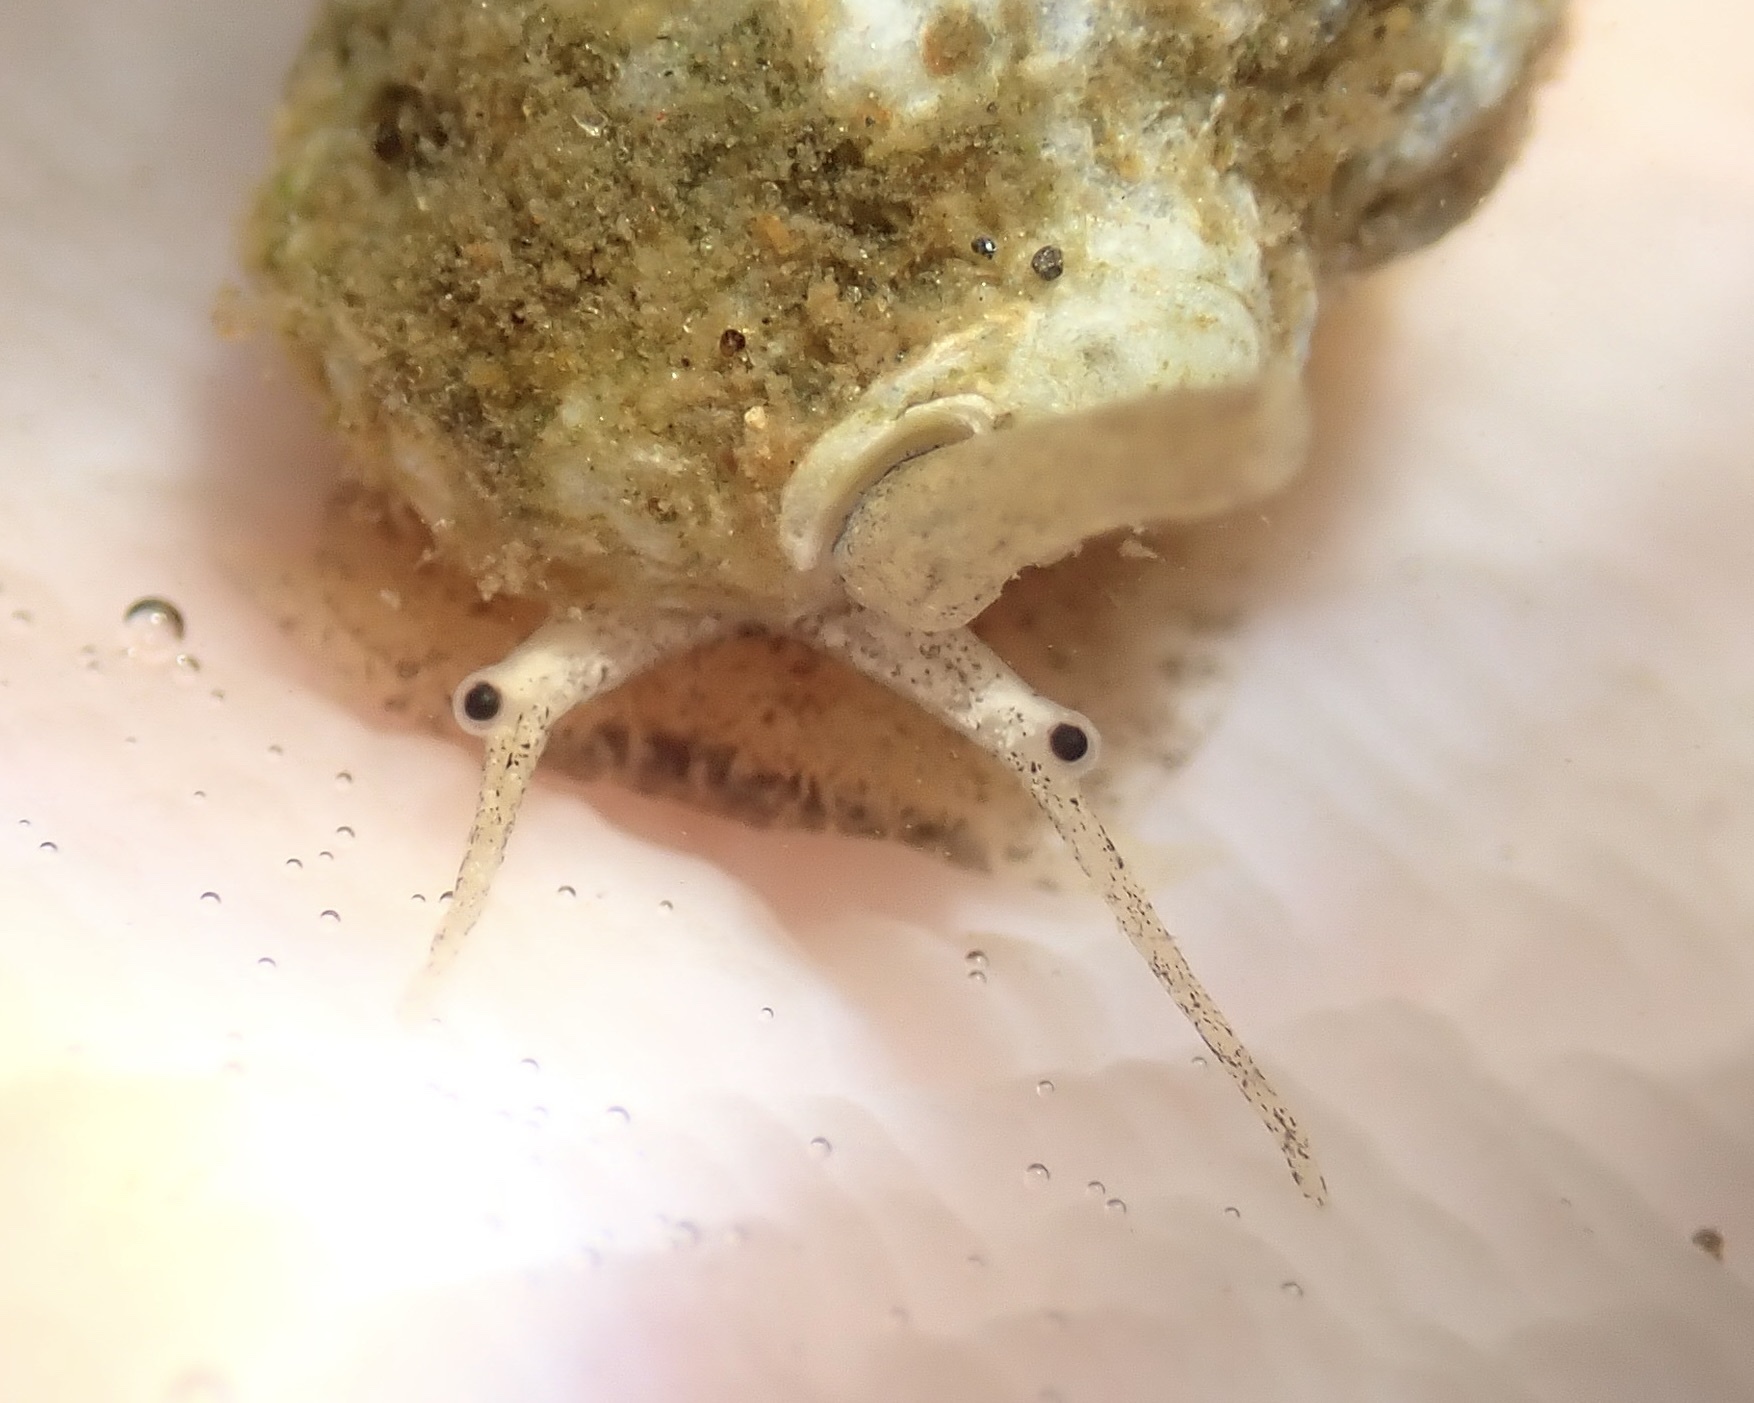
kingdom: Animalia
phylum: Mollusca
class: Gastropoda
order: Neogastropoda
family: Nassariidae
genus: Phrontis
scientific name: Phrontis vibex
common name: Bruised nassa
